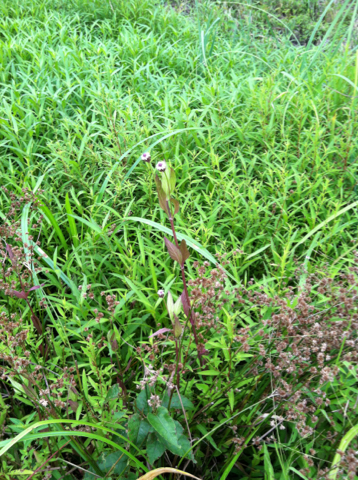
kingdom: Plantae
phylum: Tracheophyta
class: Magnoliopsida
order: Lamiales
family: Verbenaceae
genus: Phyla
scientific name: Phyla lanceolata
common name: Northern fogfruit
